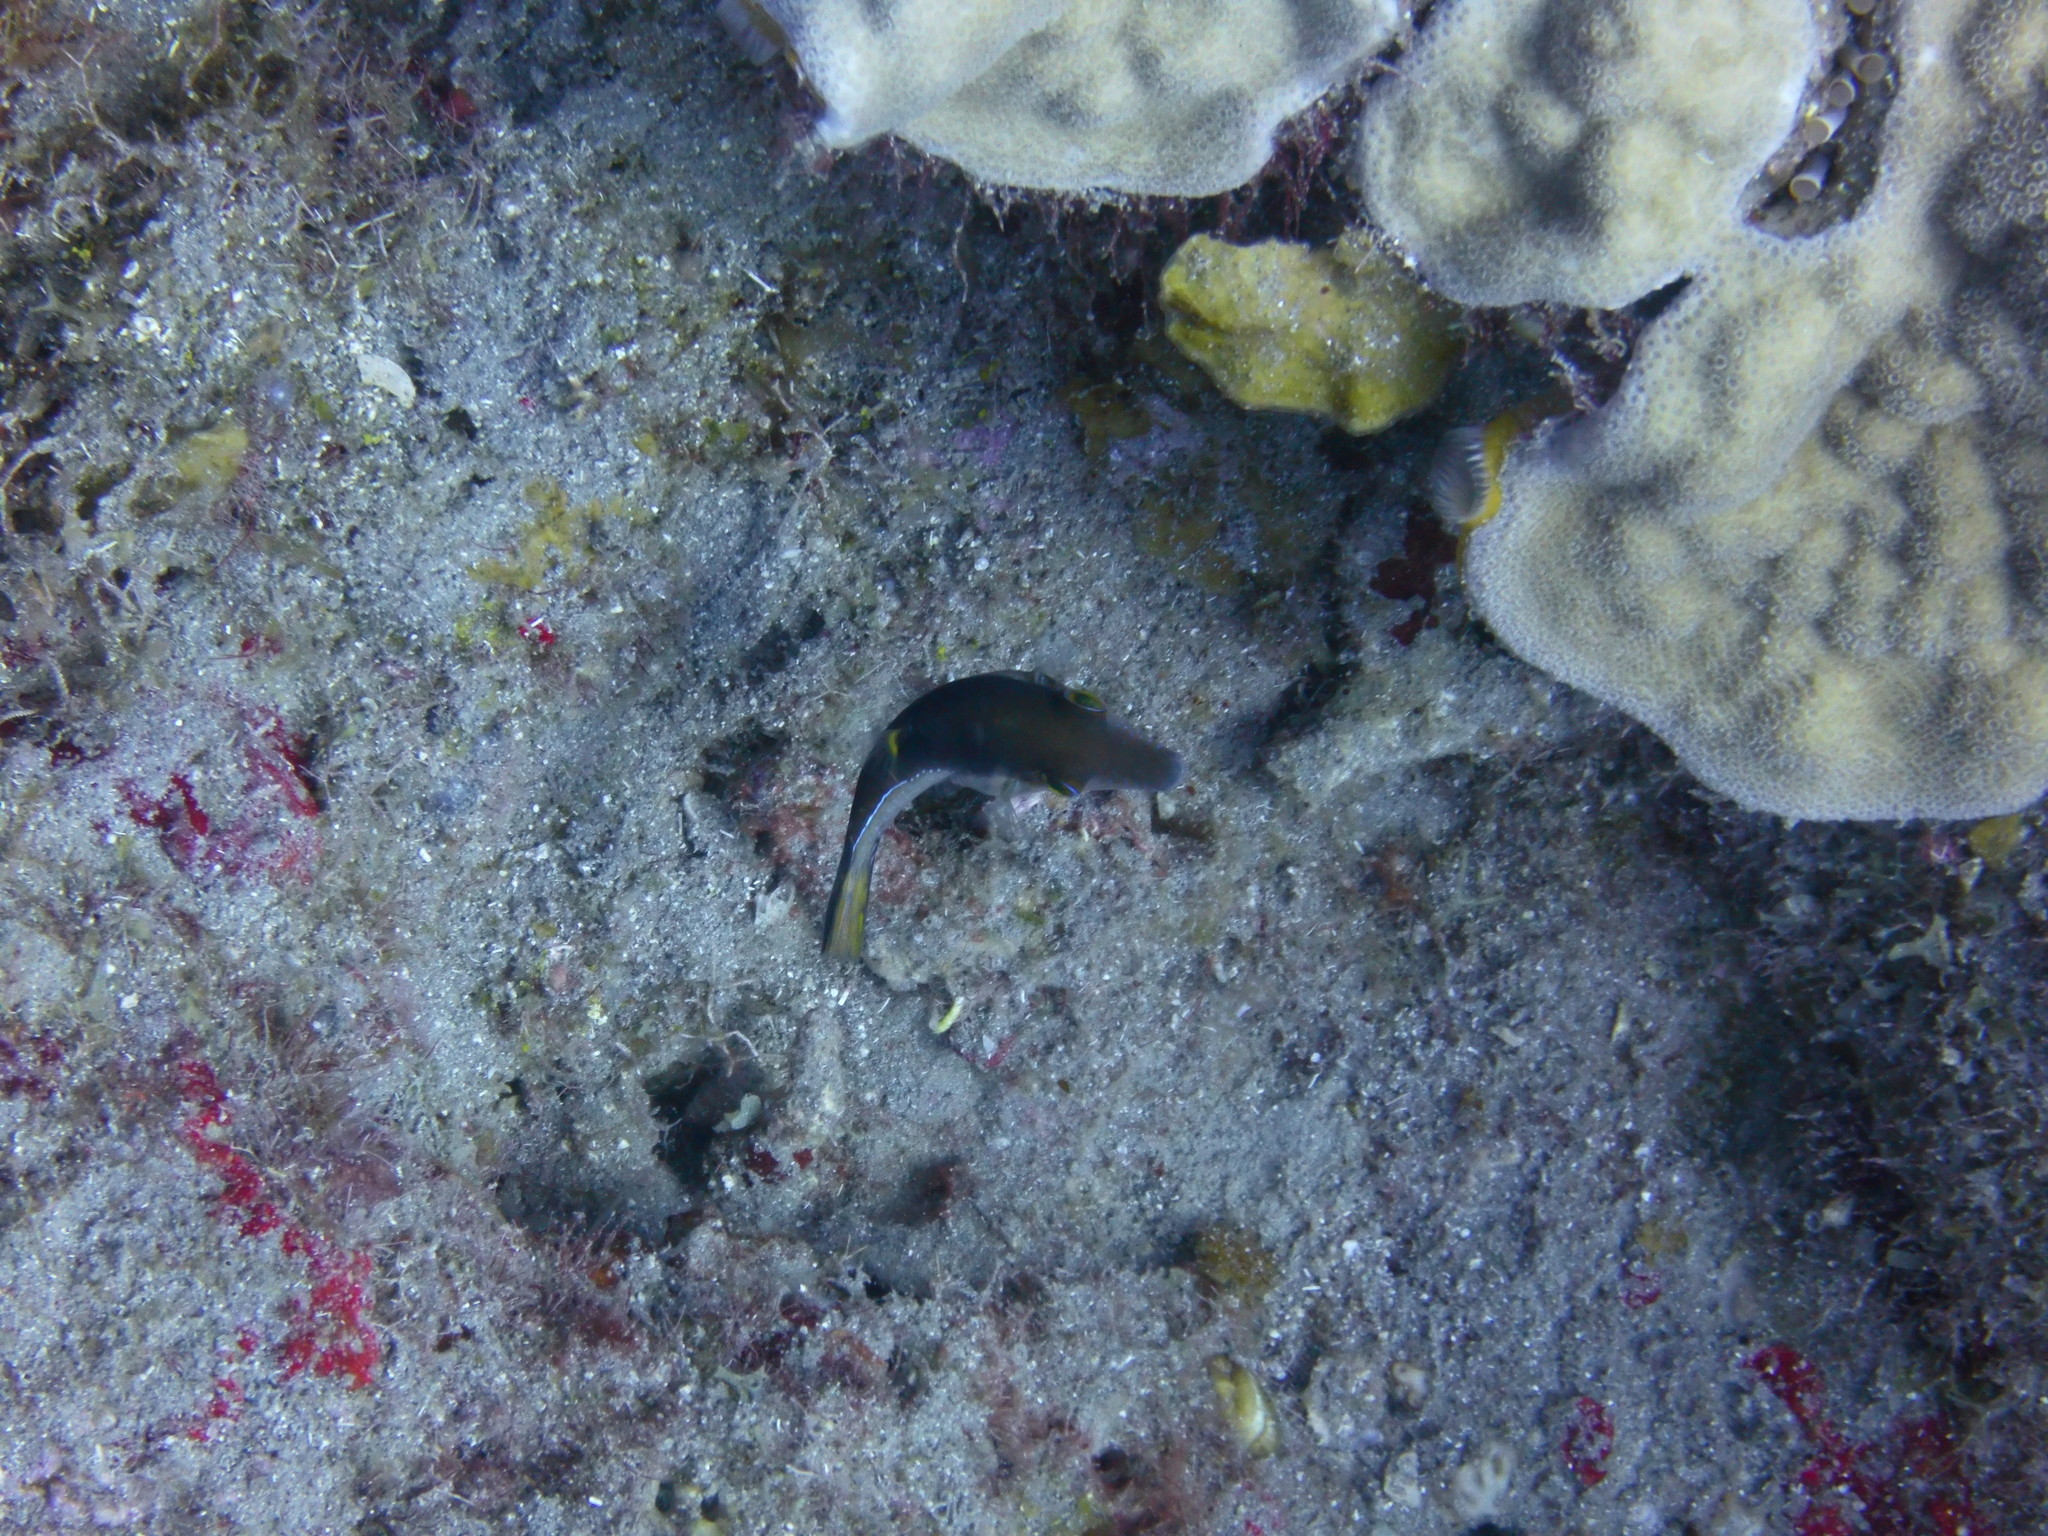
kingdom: Animalia
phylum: Chordata
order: Tetraodontiformes
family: Tetraodontidae
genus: Canthigaster
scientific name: Canthigaster rostrata
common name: Caribbean sharpnose-puffer
